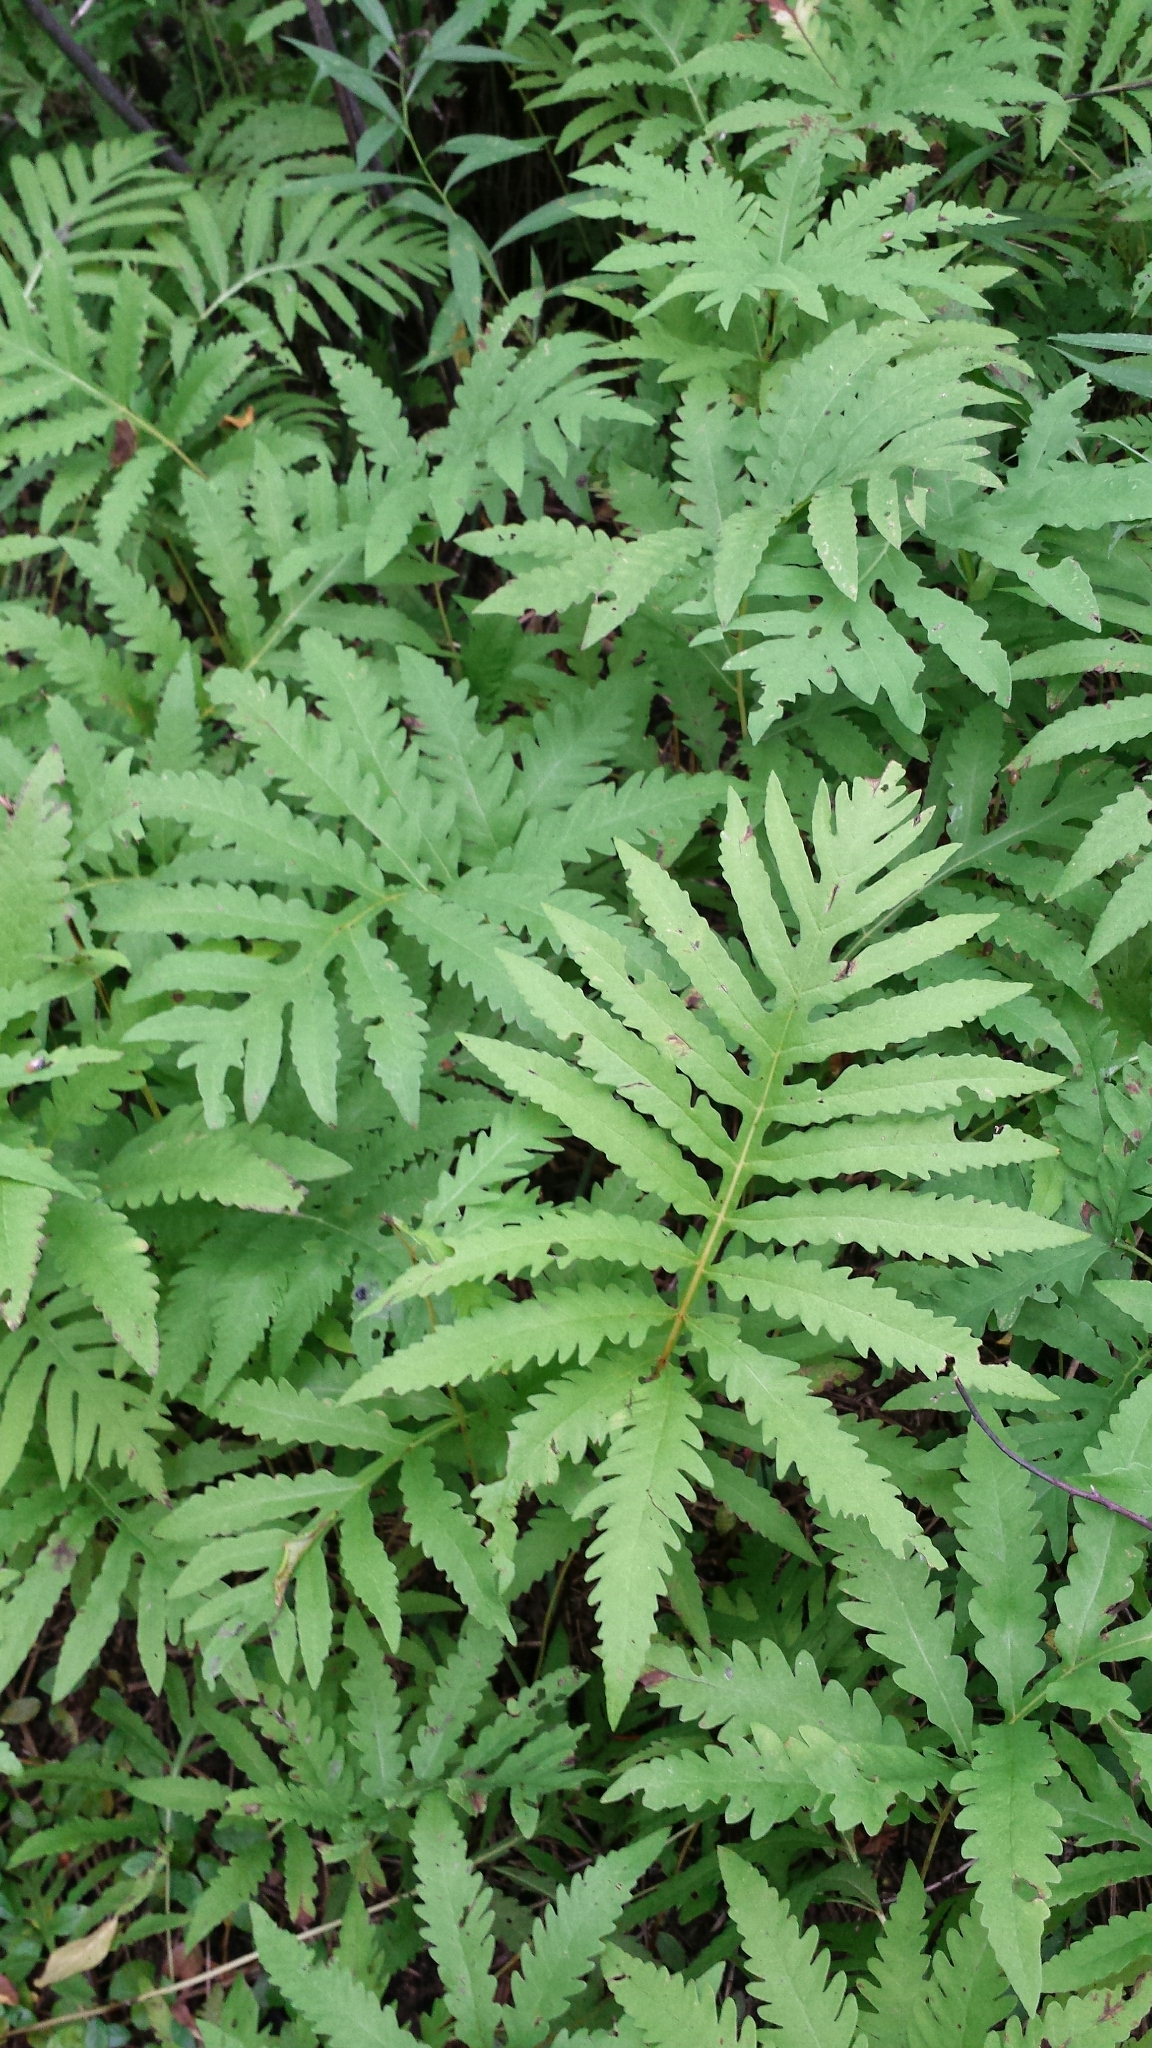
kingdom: Plantae
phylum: Tracheophyta
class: Polypodiopsida
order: Polypodiales
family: Onocleaceae
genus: Onoclea
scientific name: Onoclea sensibilis
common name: Sensitive fern
